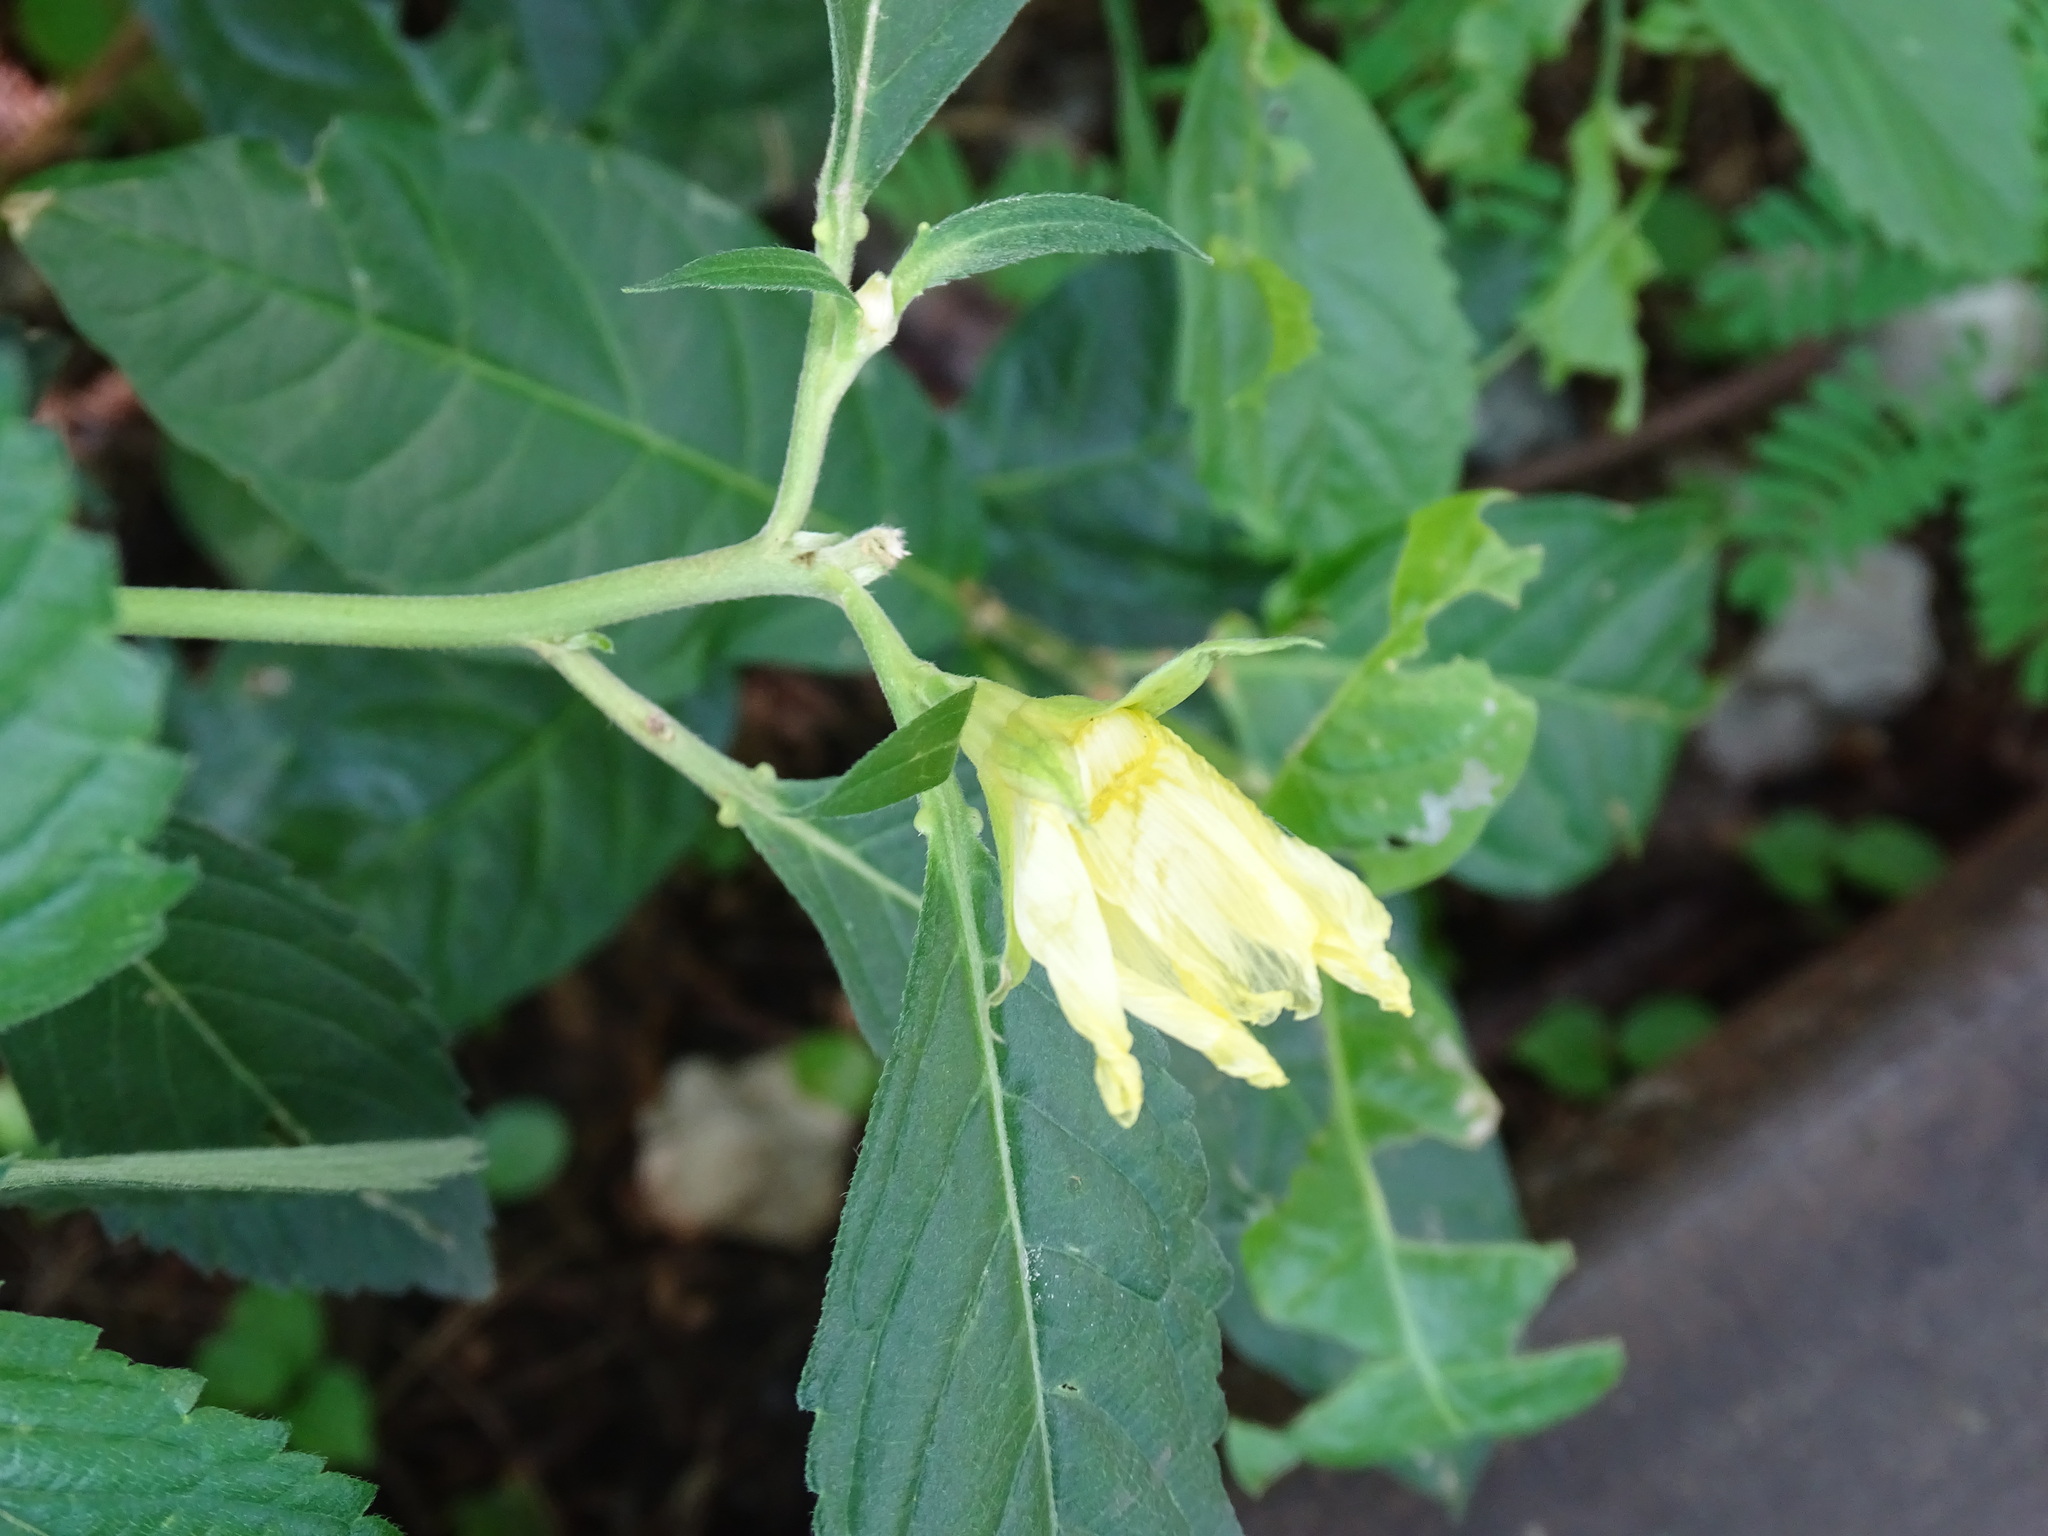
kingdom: Plantae
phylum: Tracheophyta
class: Magnoliopsida
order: Malpighiales
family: Turneraceae
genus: Turnera
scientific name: Turnera velutina
